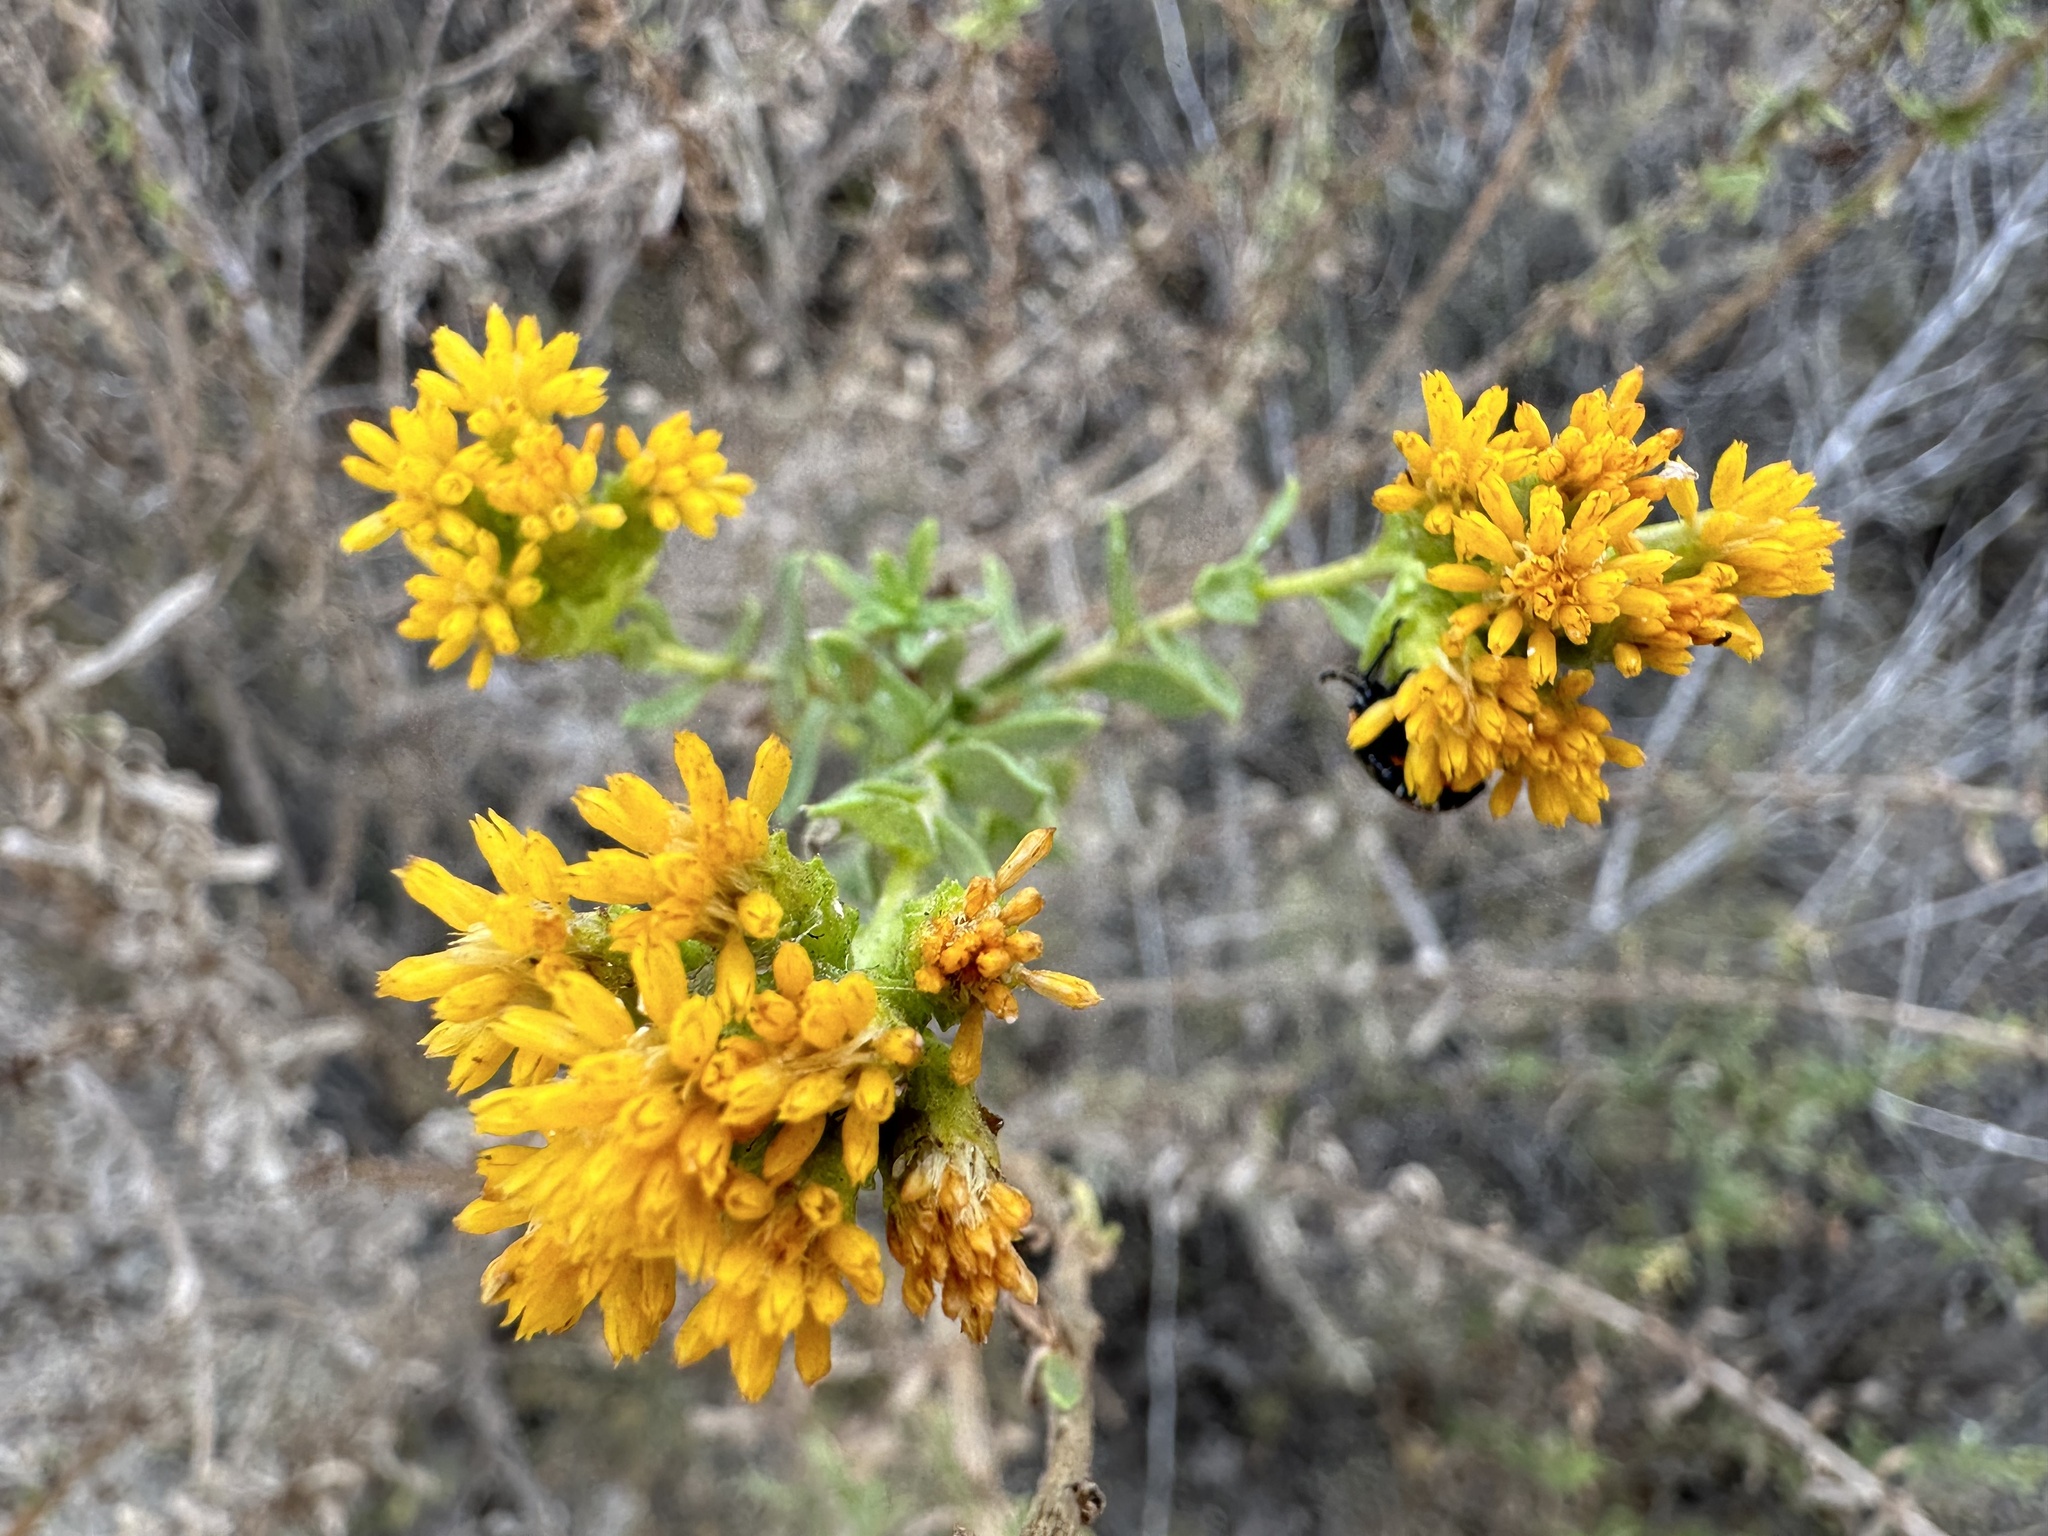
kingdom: Plantae
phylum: Tracheophyta
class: Magnoliopsida
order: Asterales
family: Asteraceae
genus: Isocoma
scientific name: Isocoma menziesii
